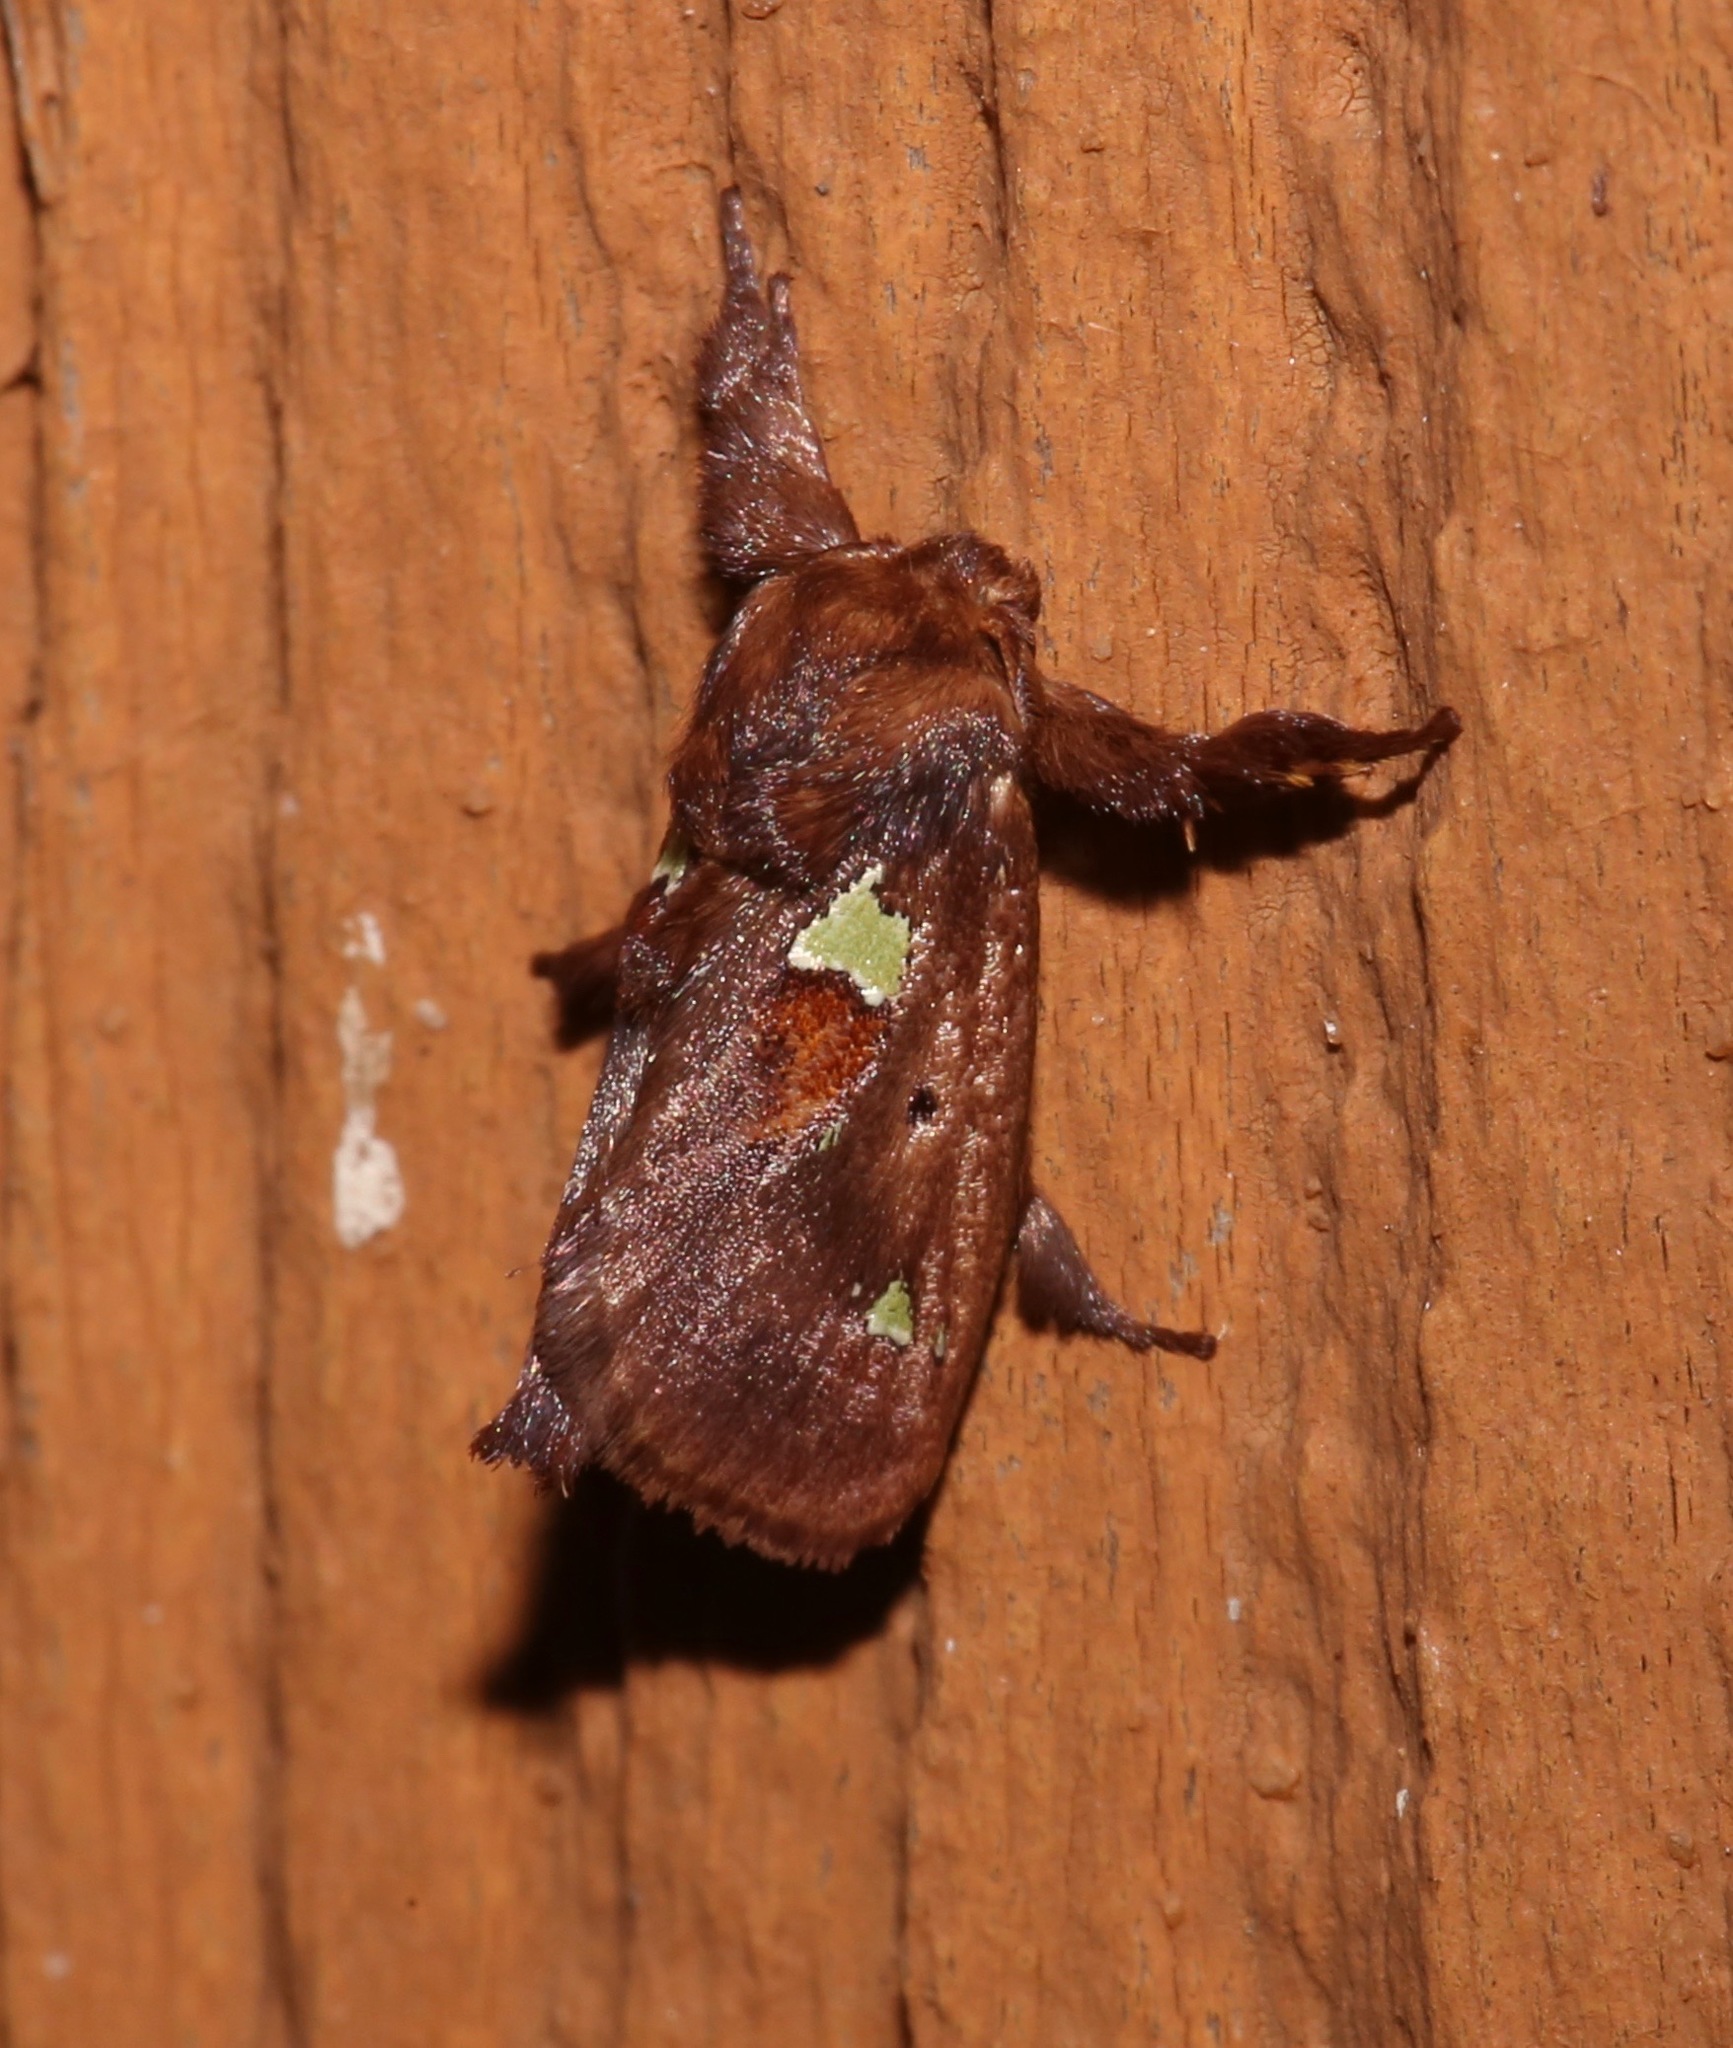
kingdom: Animalia
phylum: Arthropoda
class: Insecta
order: Lepidoptera
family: Limacodidae
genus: Euclea
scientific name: Euclea delphinii
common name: Spiny oak-slug moth
